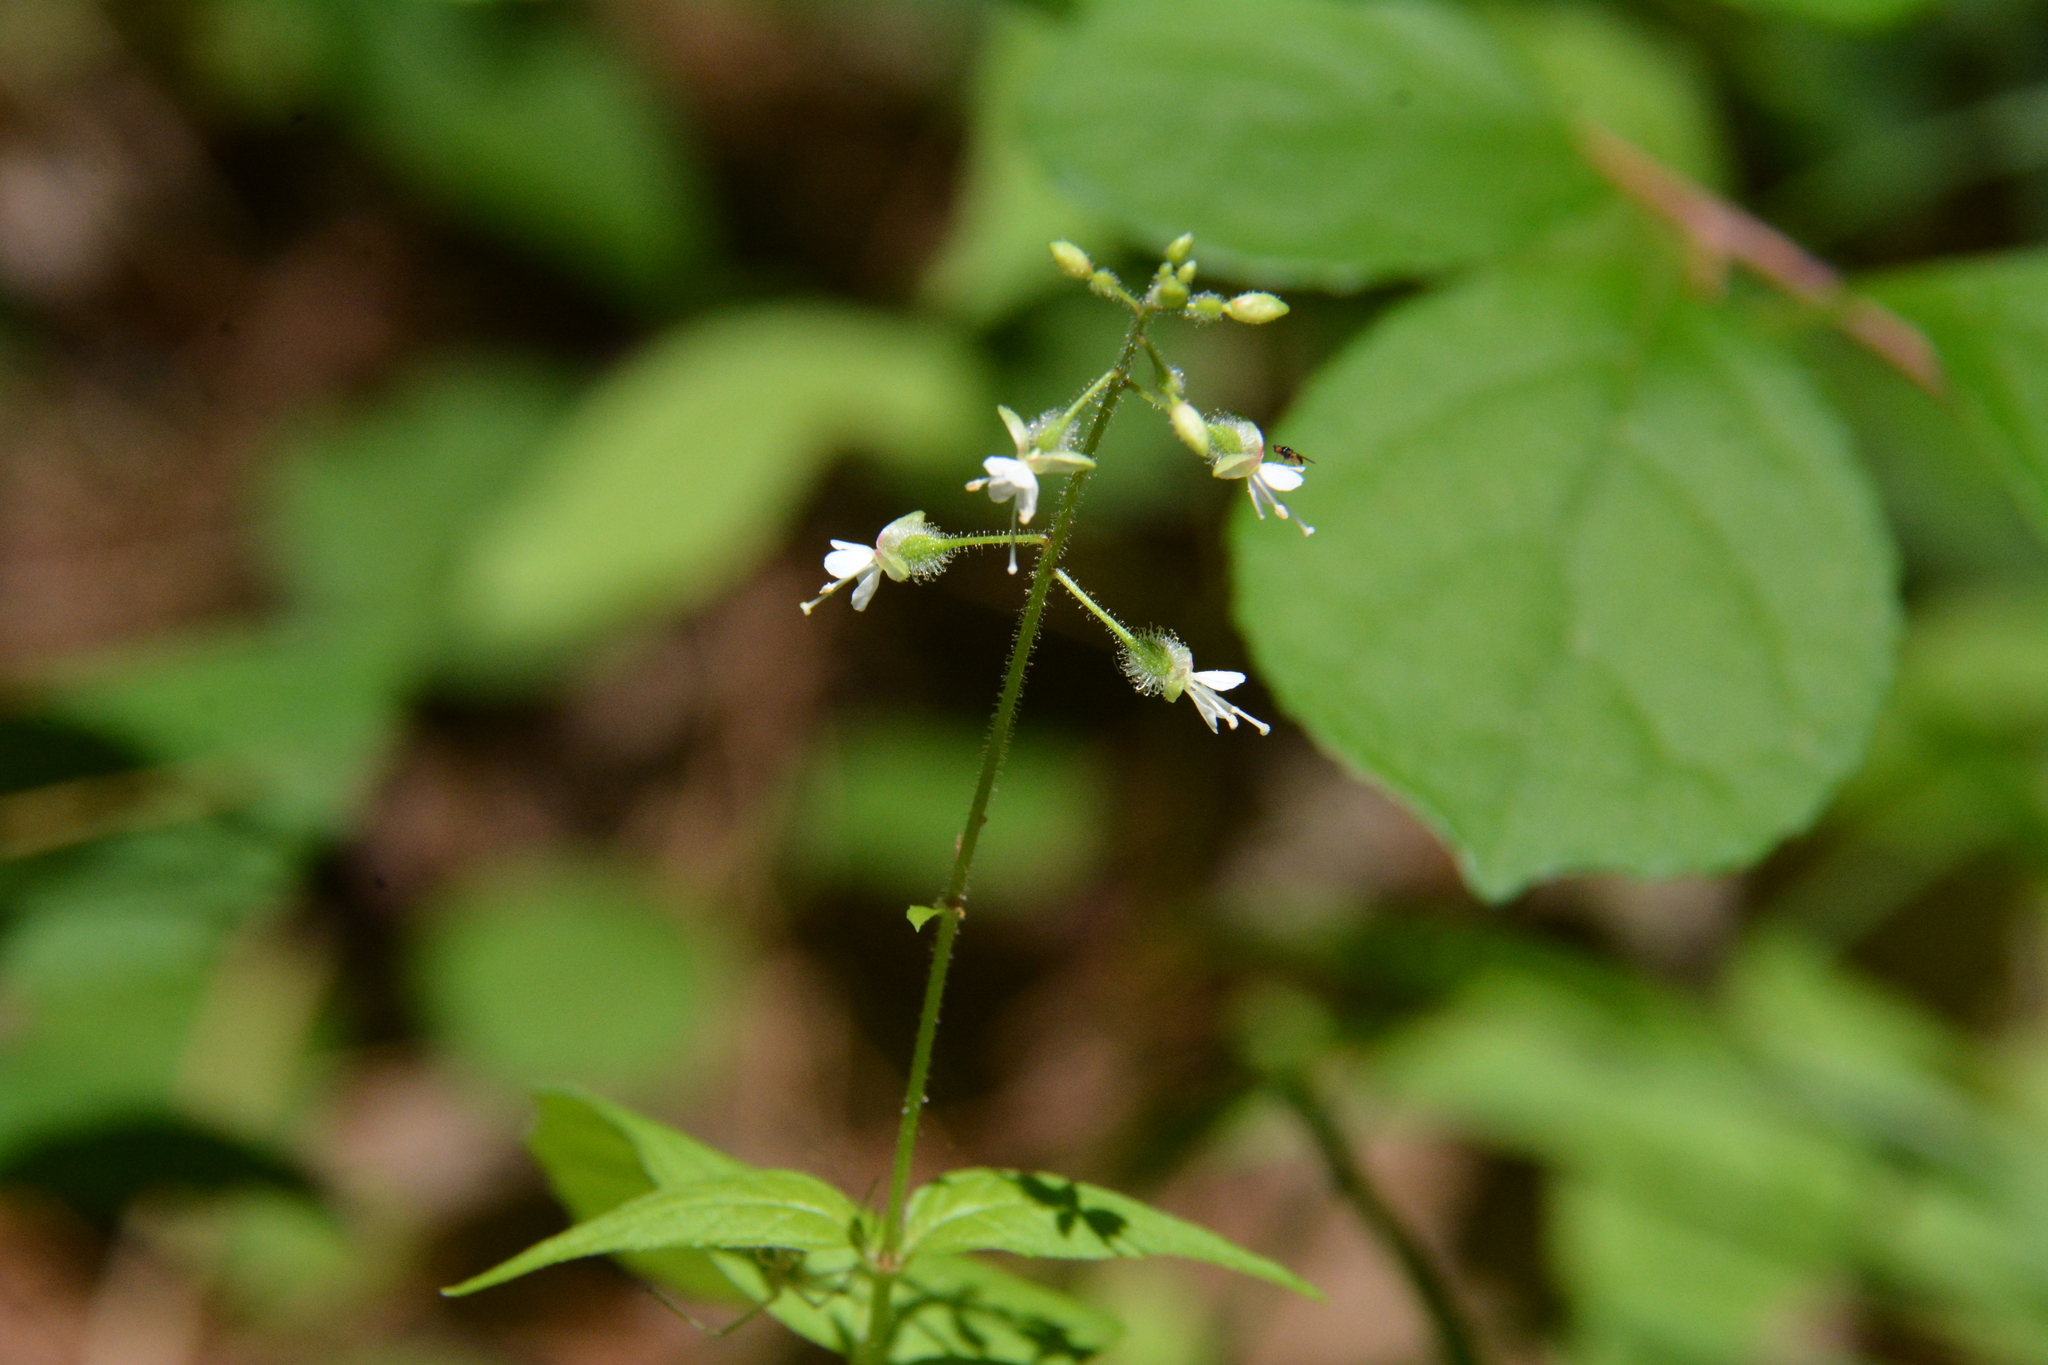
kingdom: Plantae
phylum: Tracheophyta
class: Magnoliopsida
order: Myrtales
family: Onagraceae
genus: Circaea
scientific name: Circaea canadensis
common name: Broad-leaved enchanter's nightshade
